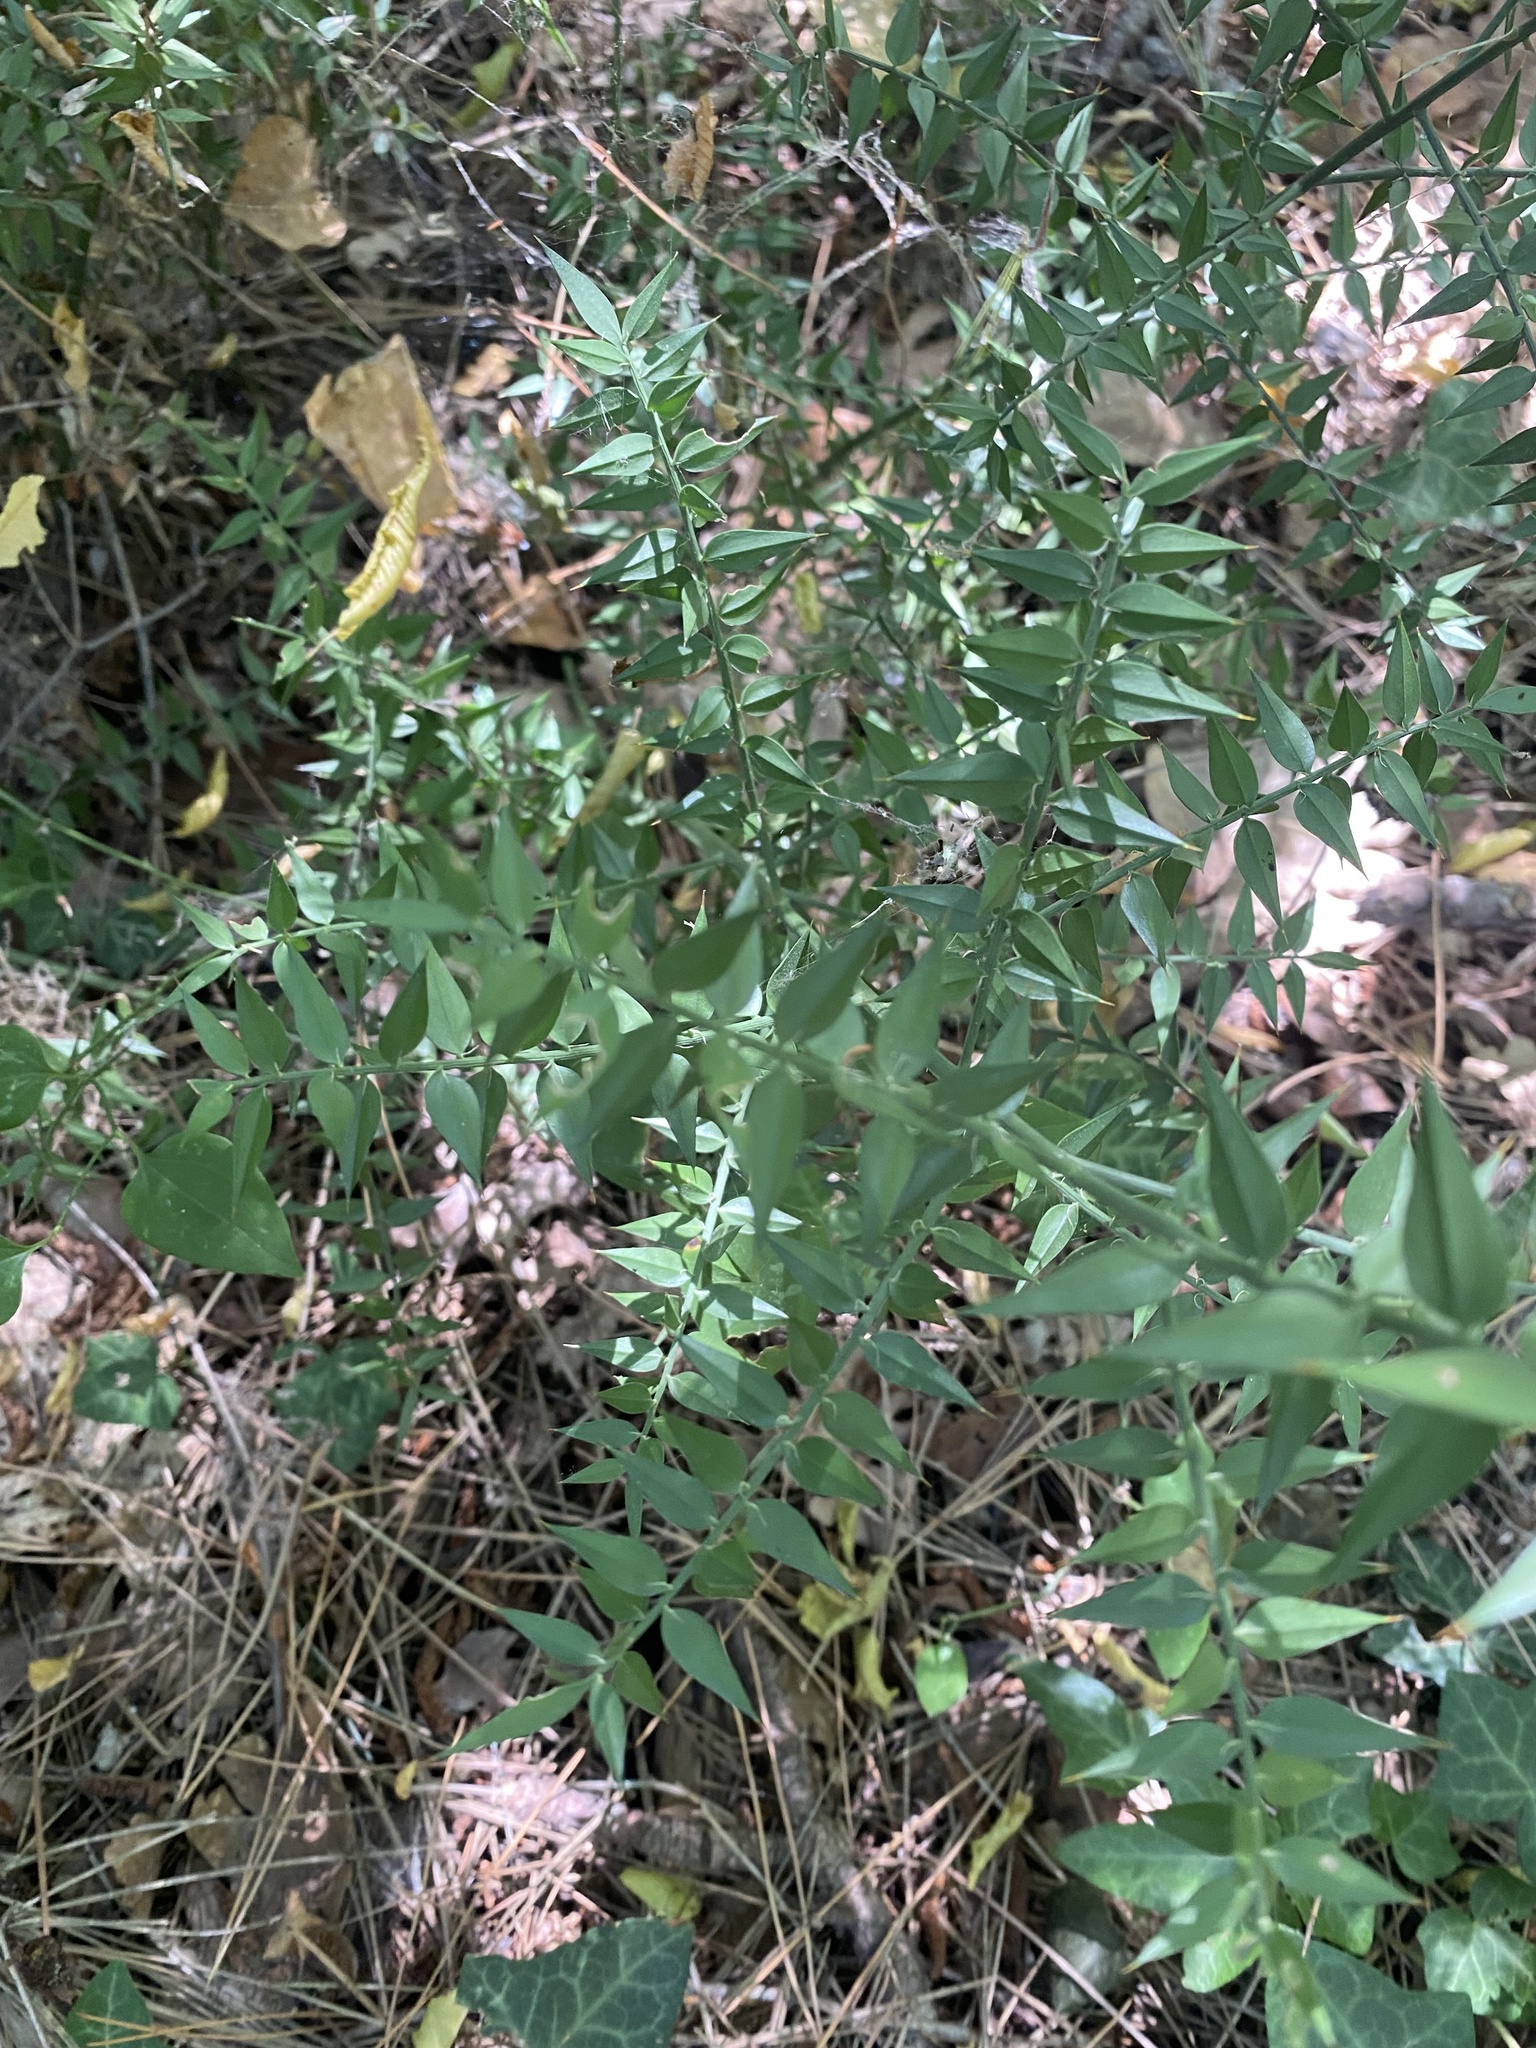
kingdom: Plantae
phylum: Tracheophyta
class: Liliopsida
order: Asparagales
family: Asparagaceae
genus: Ruscus
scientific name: Ruscus aculeatus
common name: Butcher's-broom
